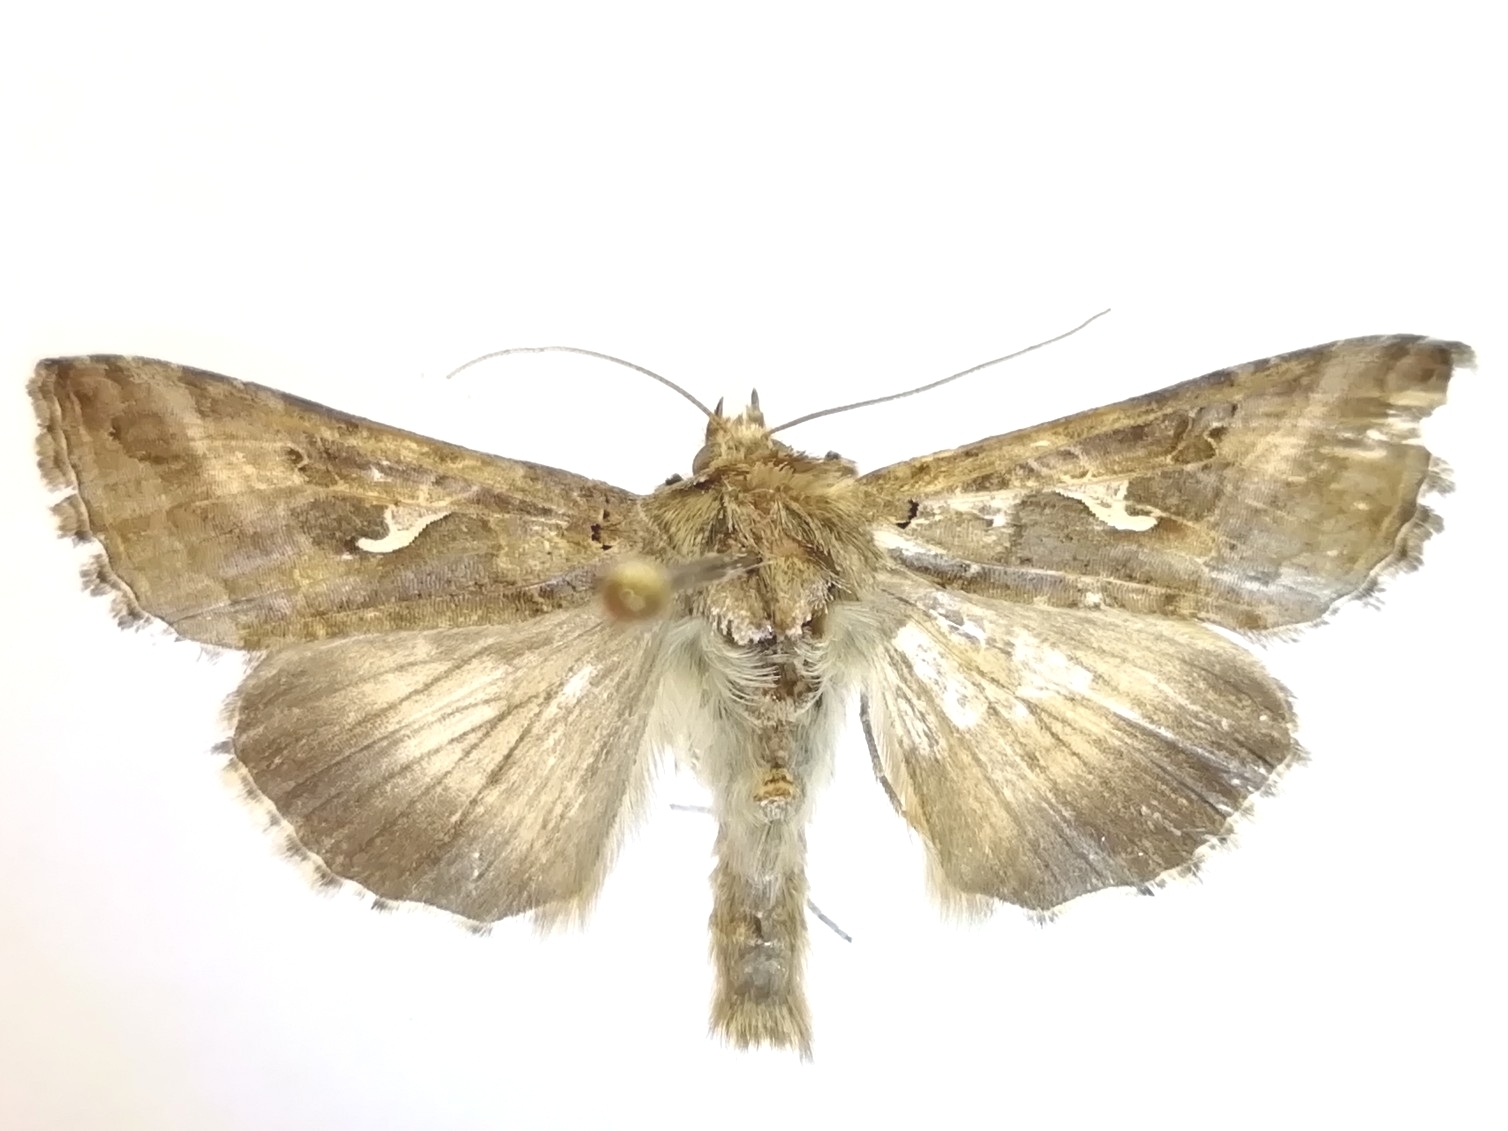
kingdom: Animalia
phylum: Arthropoda
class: Insecta
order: Lepidoptera
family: Noctuidae
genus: Autographa
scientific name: Autographa gamma
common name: Silver y
